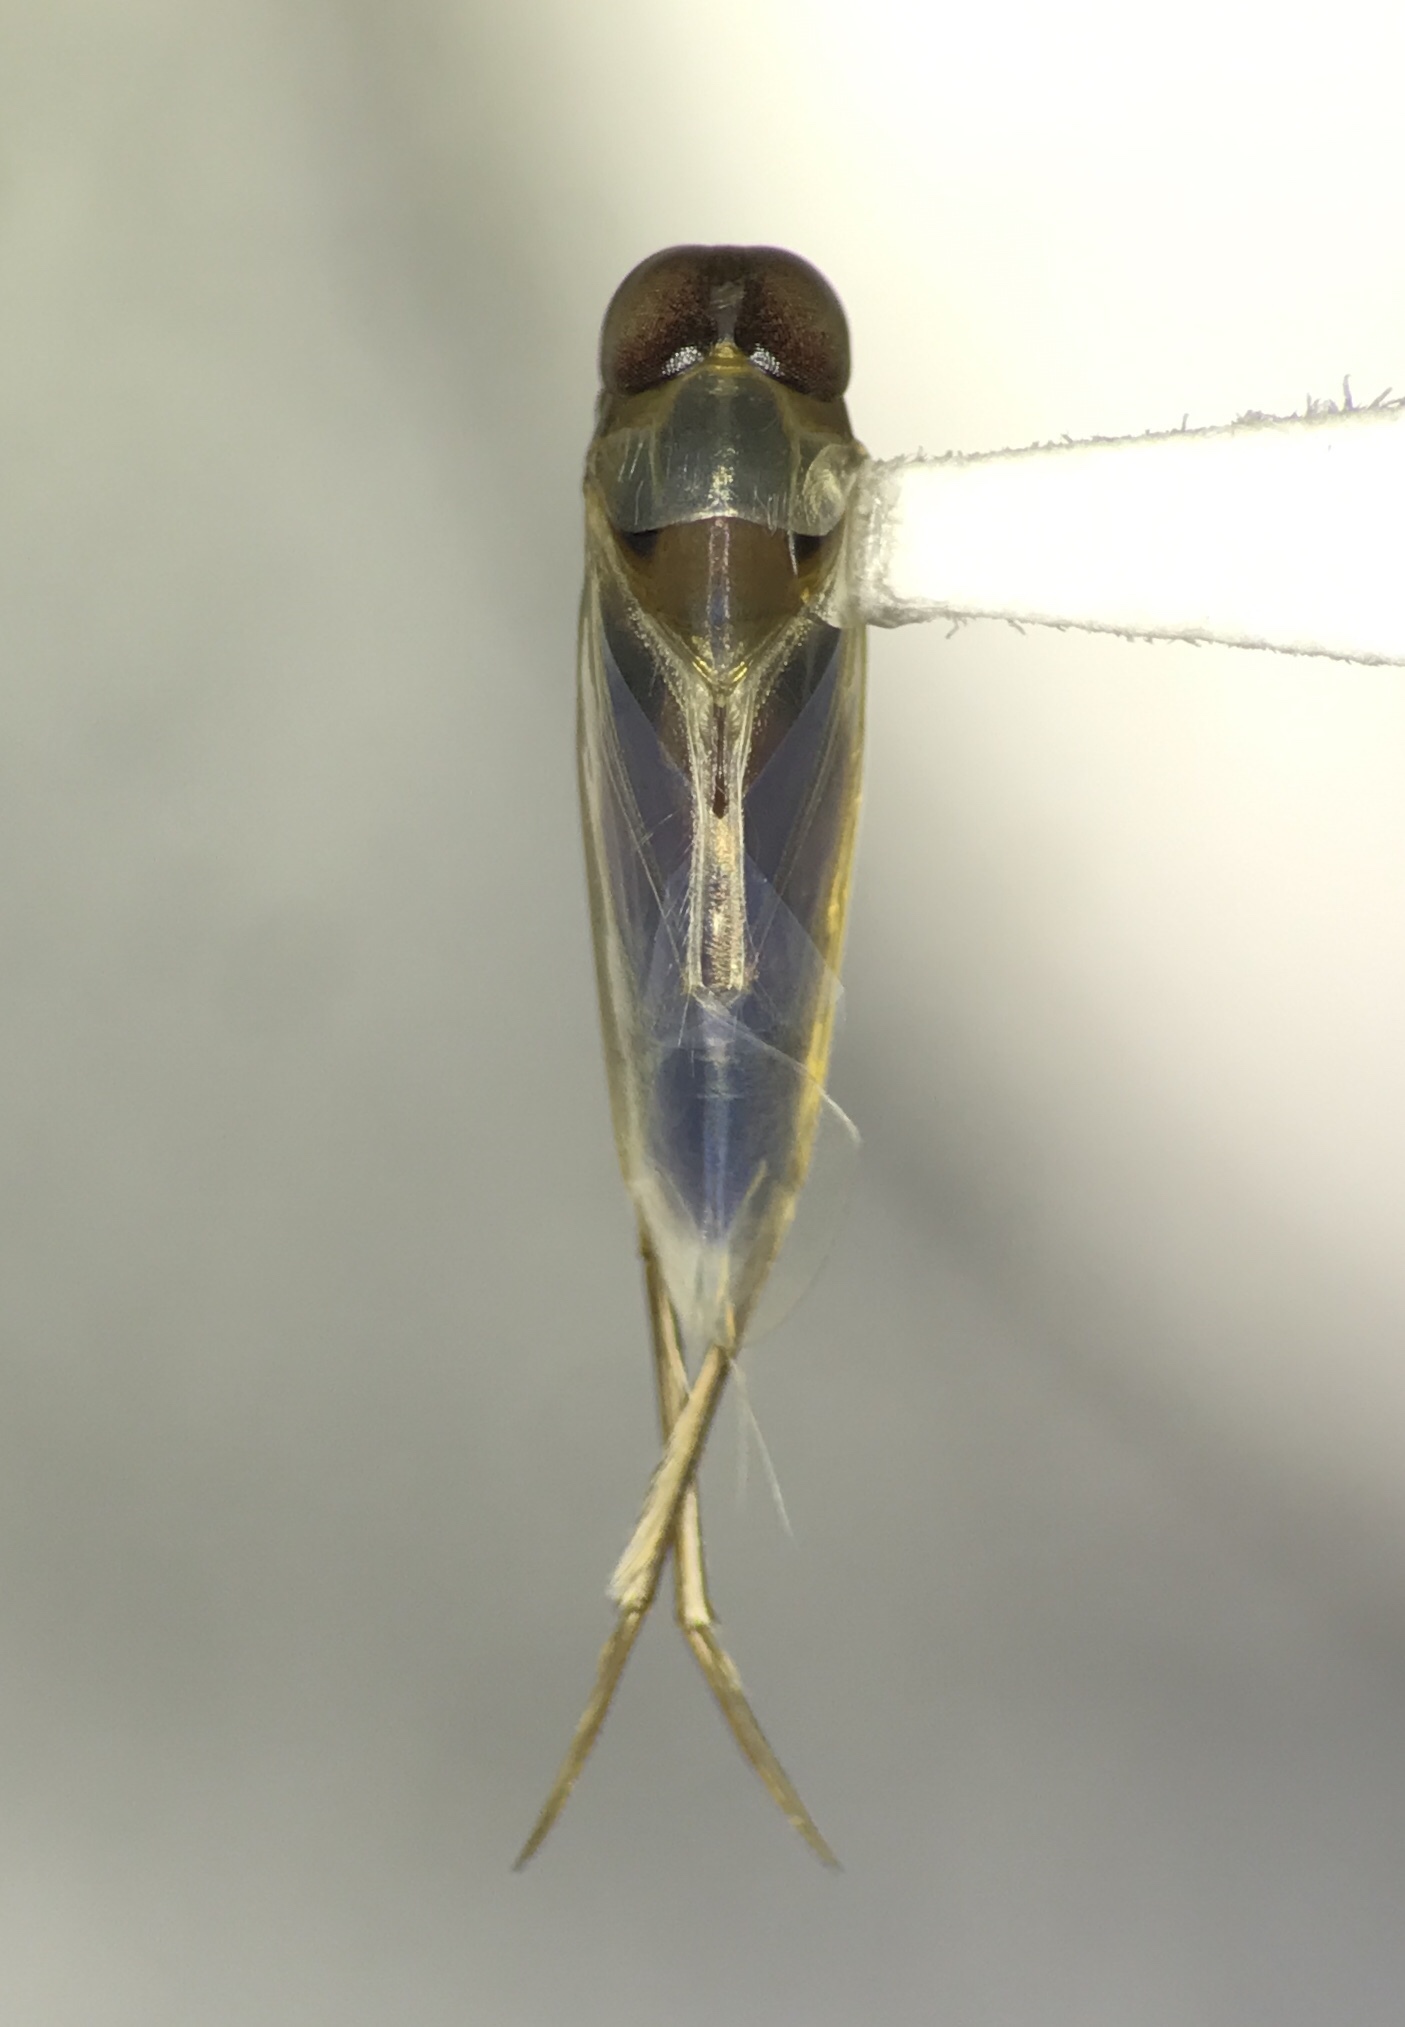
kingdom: Animalia
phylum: Arthropoda
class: Insecta
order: Hemiptera
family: Notonectidae
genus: Buenoa
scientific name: Buenoa scimitra
